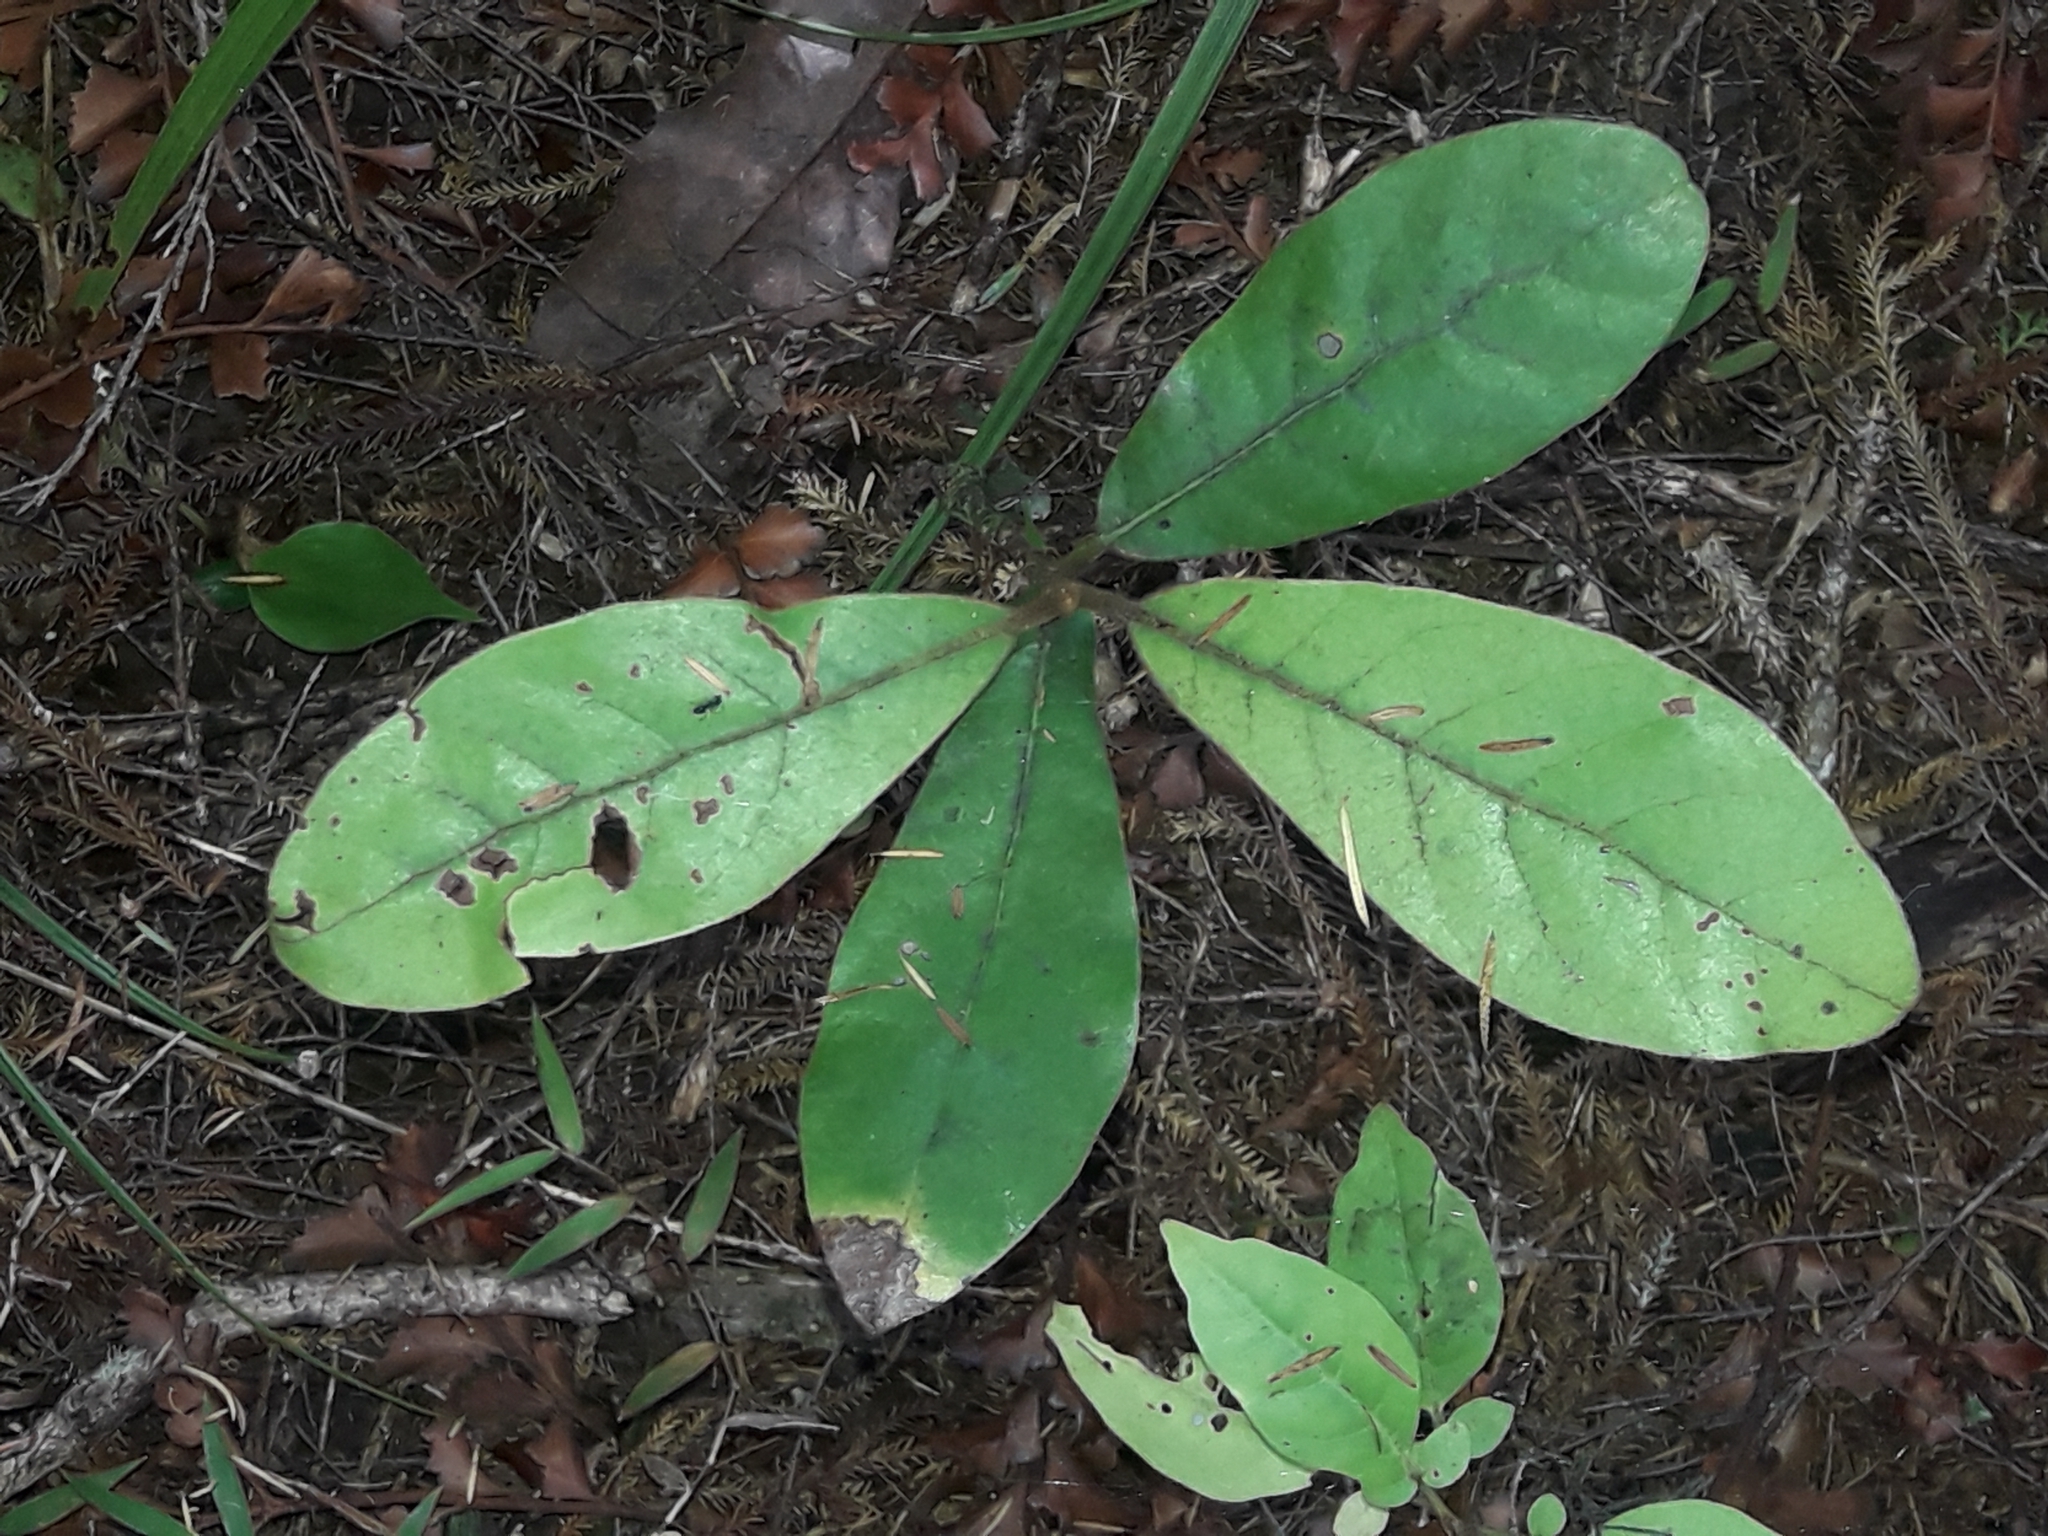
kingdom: Plantae
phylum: Tracheophyta
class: Magnoliopsida
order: Laurales
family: Lauraceae
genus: Beilschmiedia
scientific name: Beilschmiedia tarairi
